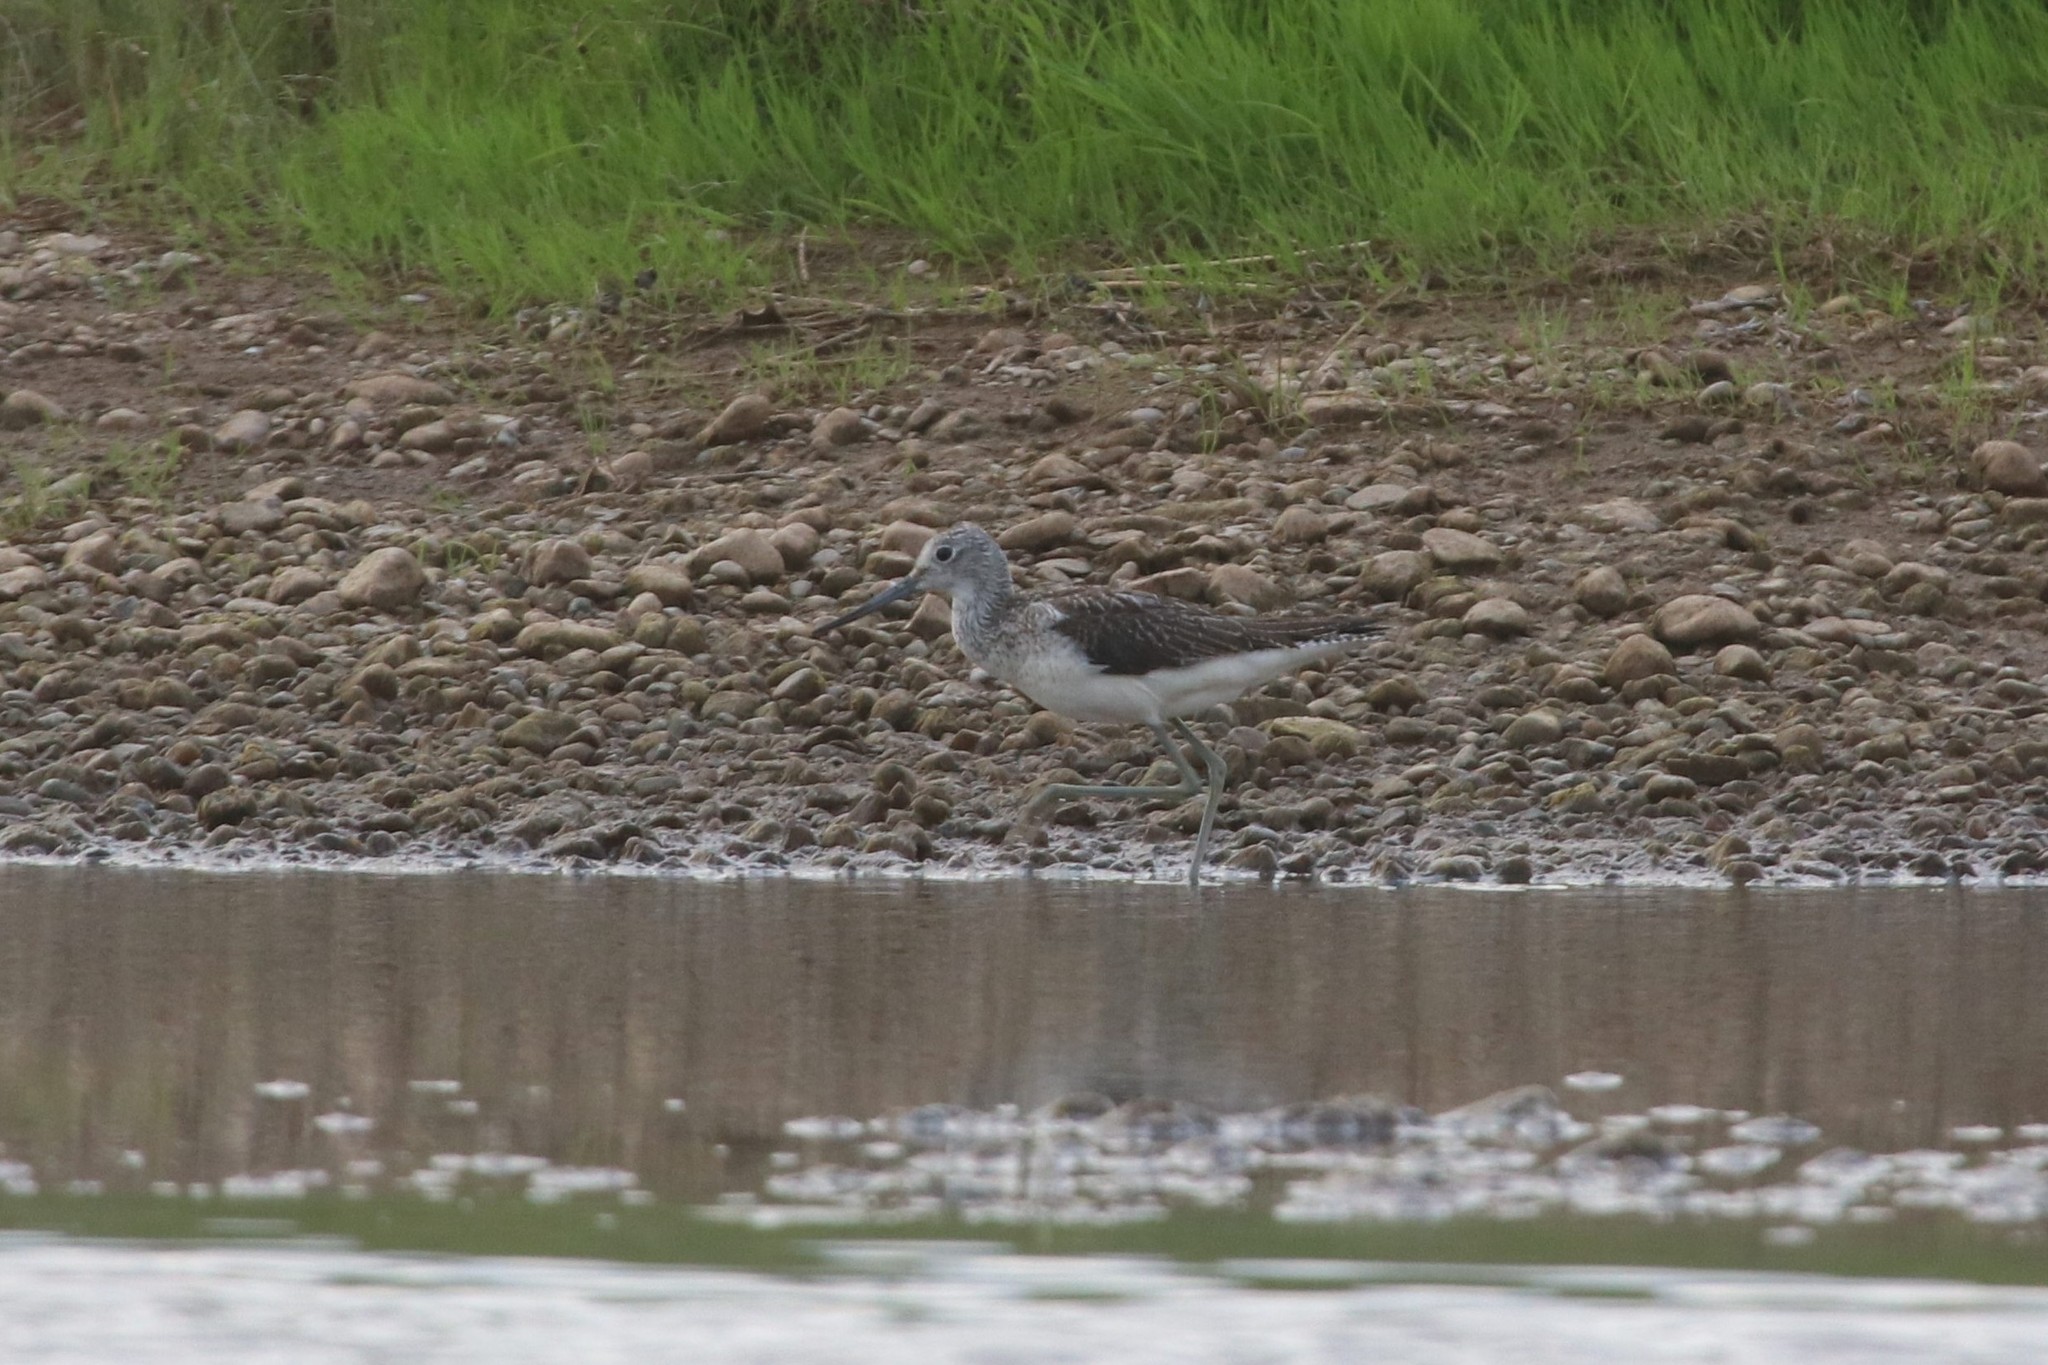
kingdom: Animalia
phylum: Chordata
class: Aves
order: Charadriiformes
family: Scolopacidae
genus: Tringa
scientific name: Tringa nebularia
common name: Common greenshank
